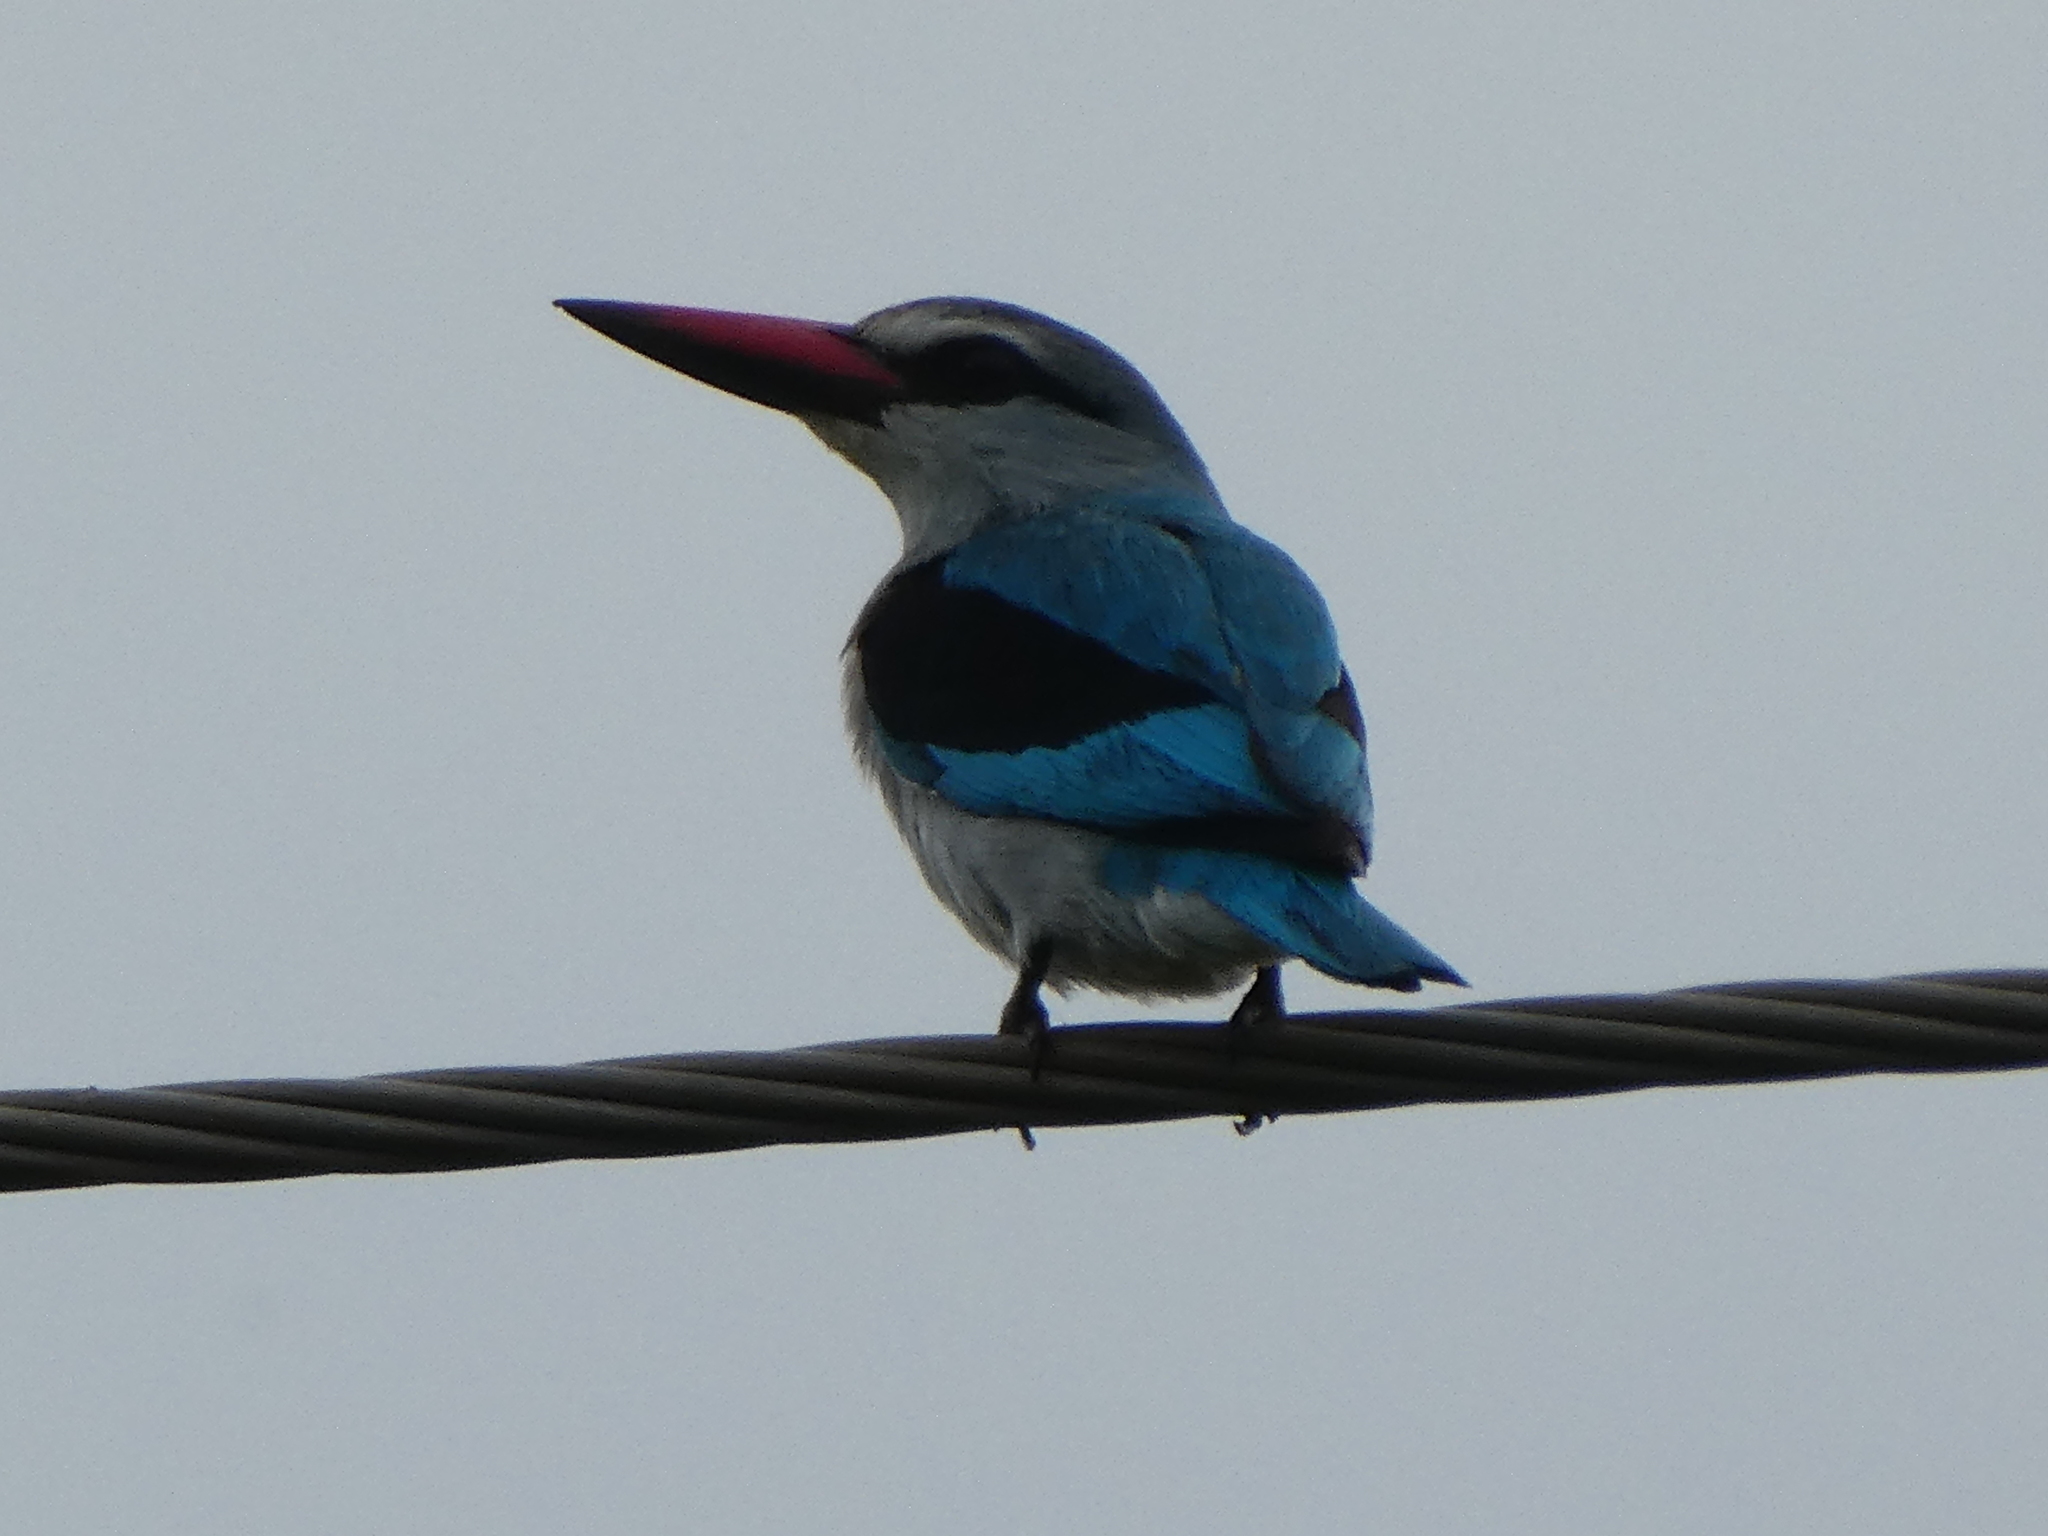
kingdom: Animalia
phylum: Chordata
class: Aves
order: Coraciiformes
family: Alcedinidae
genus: Halcyon
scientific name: Halcyon senegalensis
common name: Woodland kingfisher
